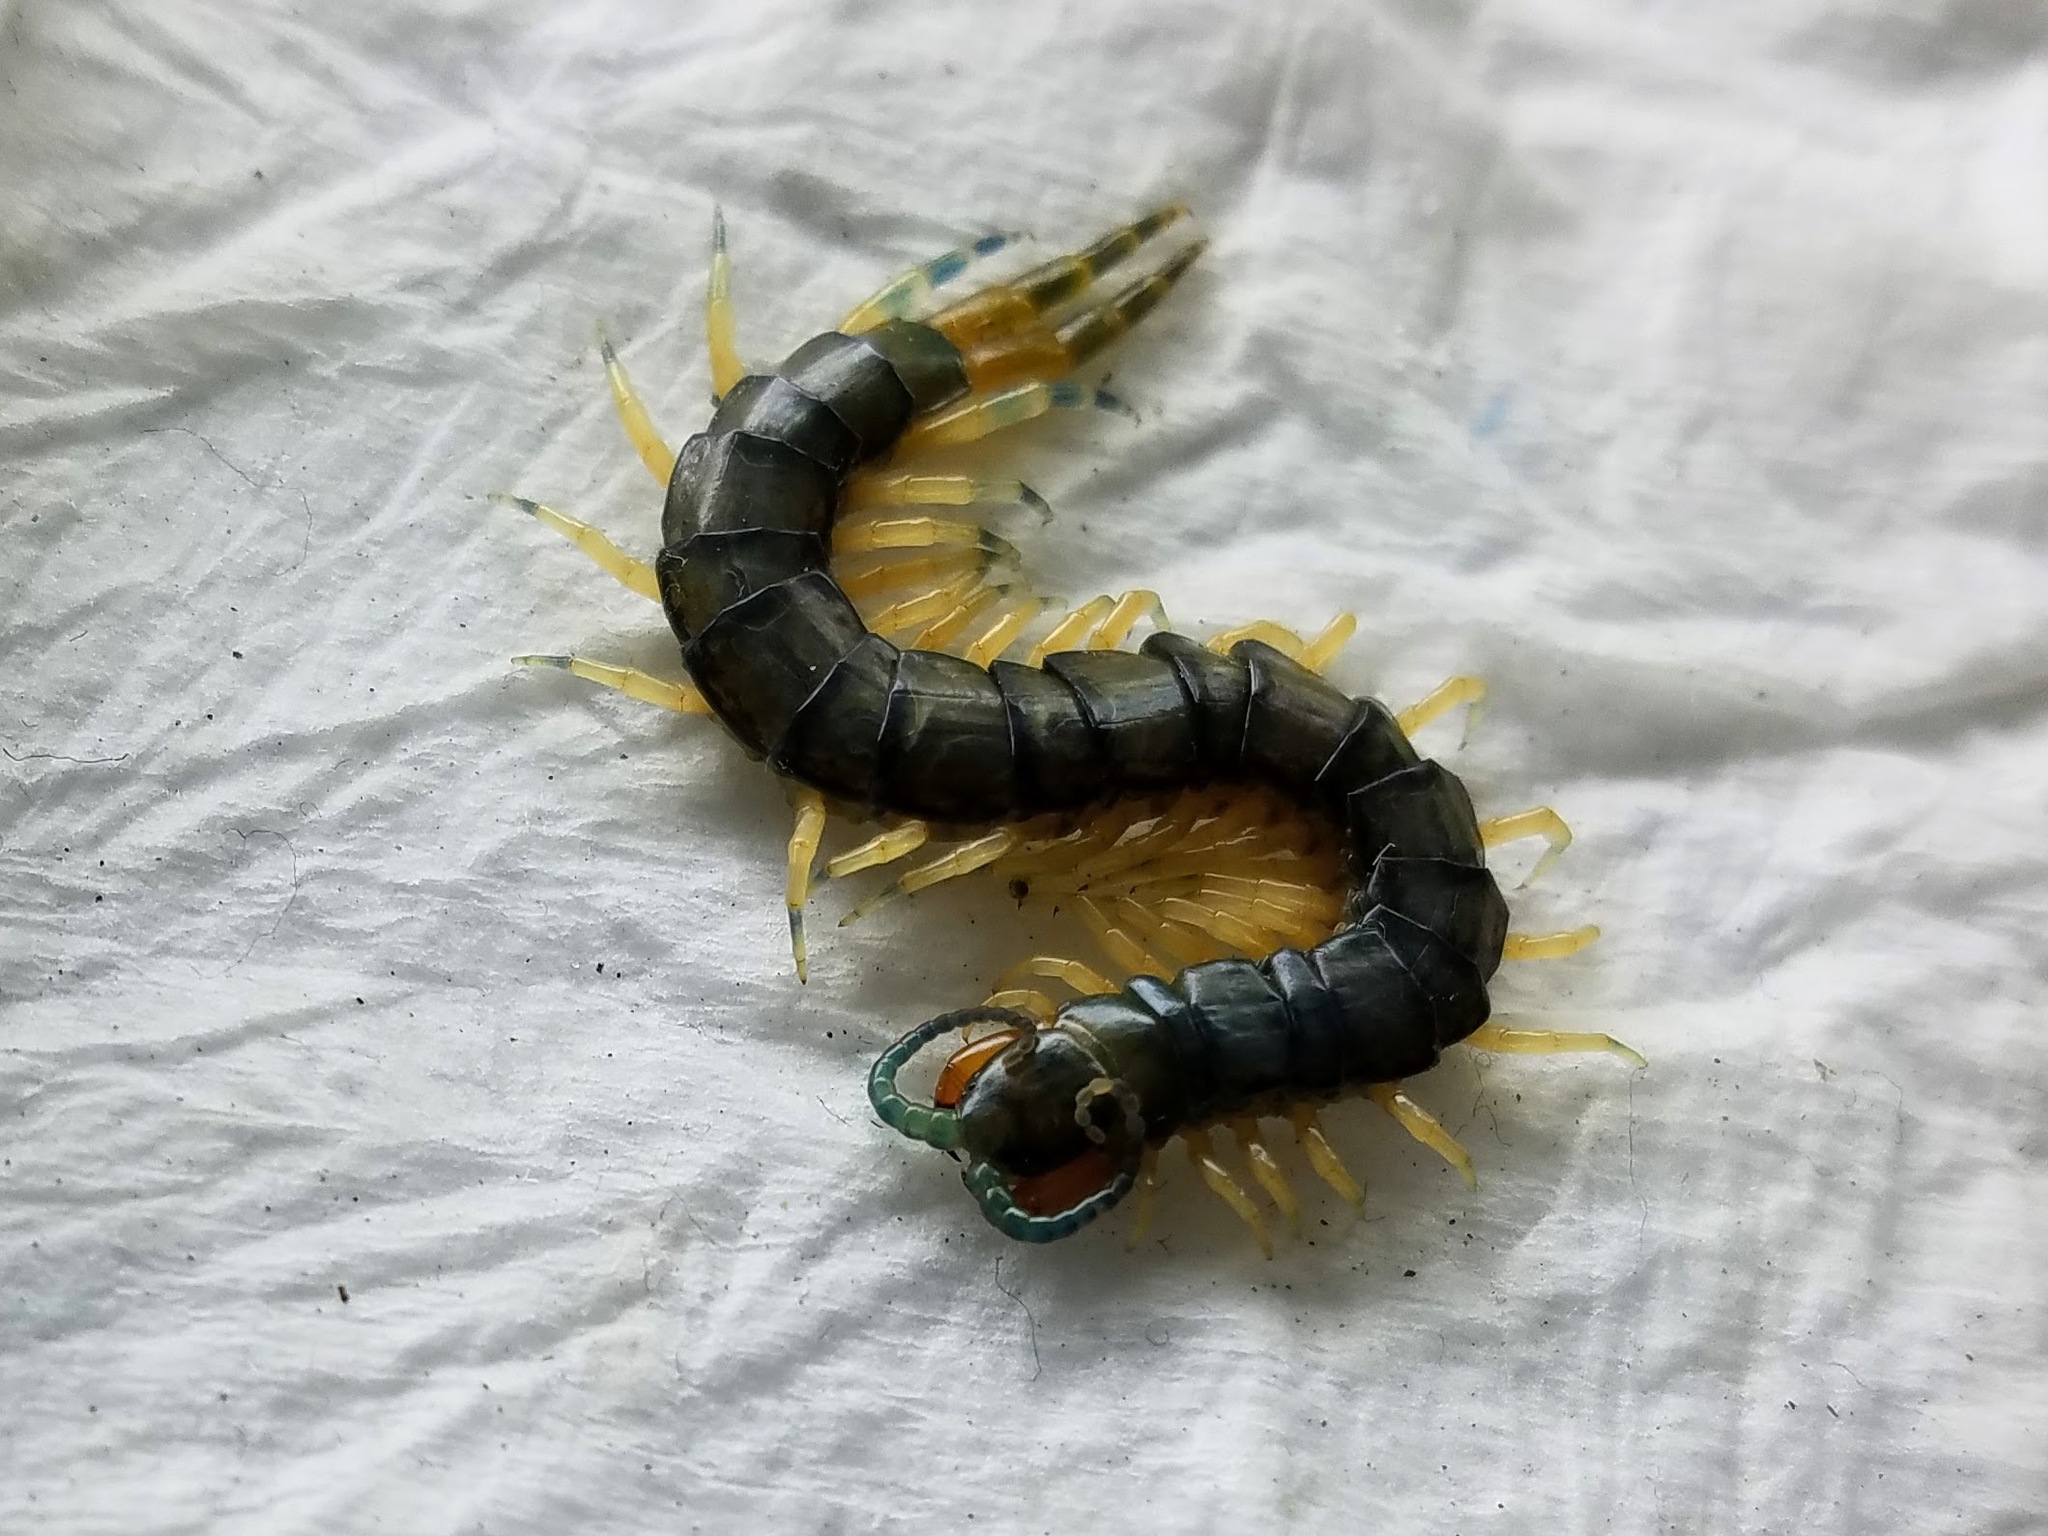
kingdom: Animalia
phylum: Arthropoda
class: Chilopoda
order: Scolopendromorpha
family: Scolopendridae
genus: Hemiscolopendra
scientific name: Hemiscolopendra marginata
